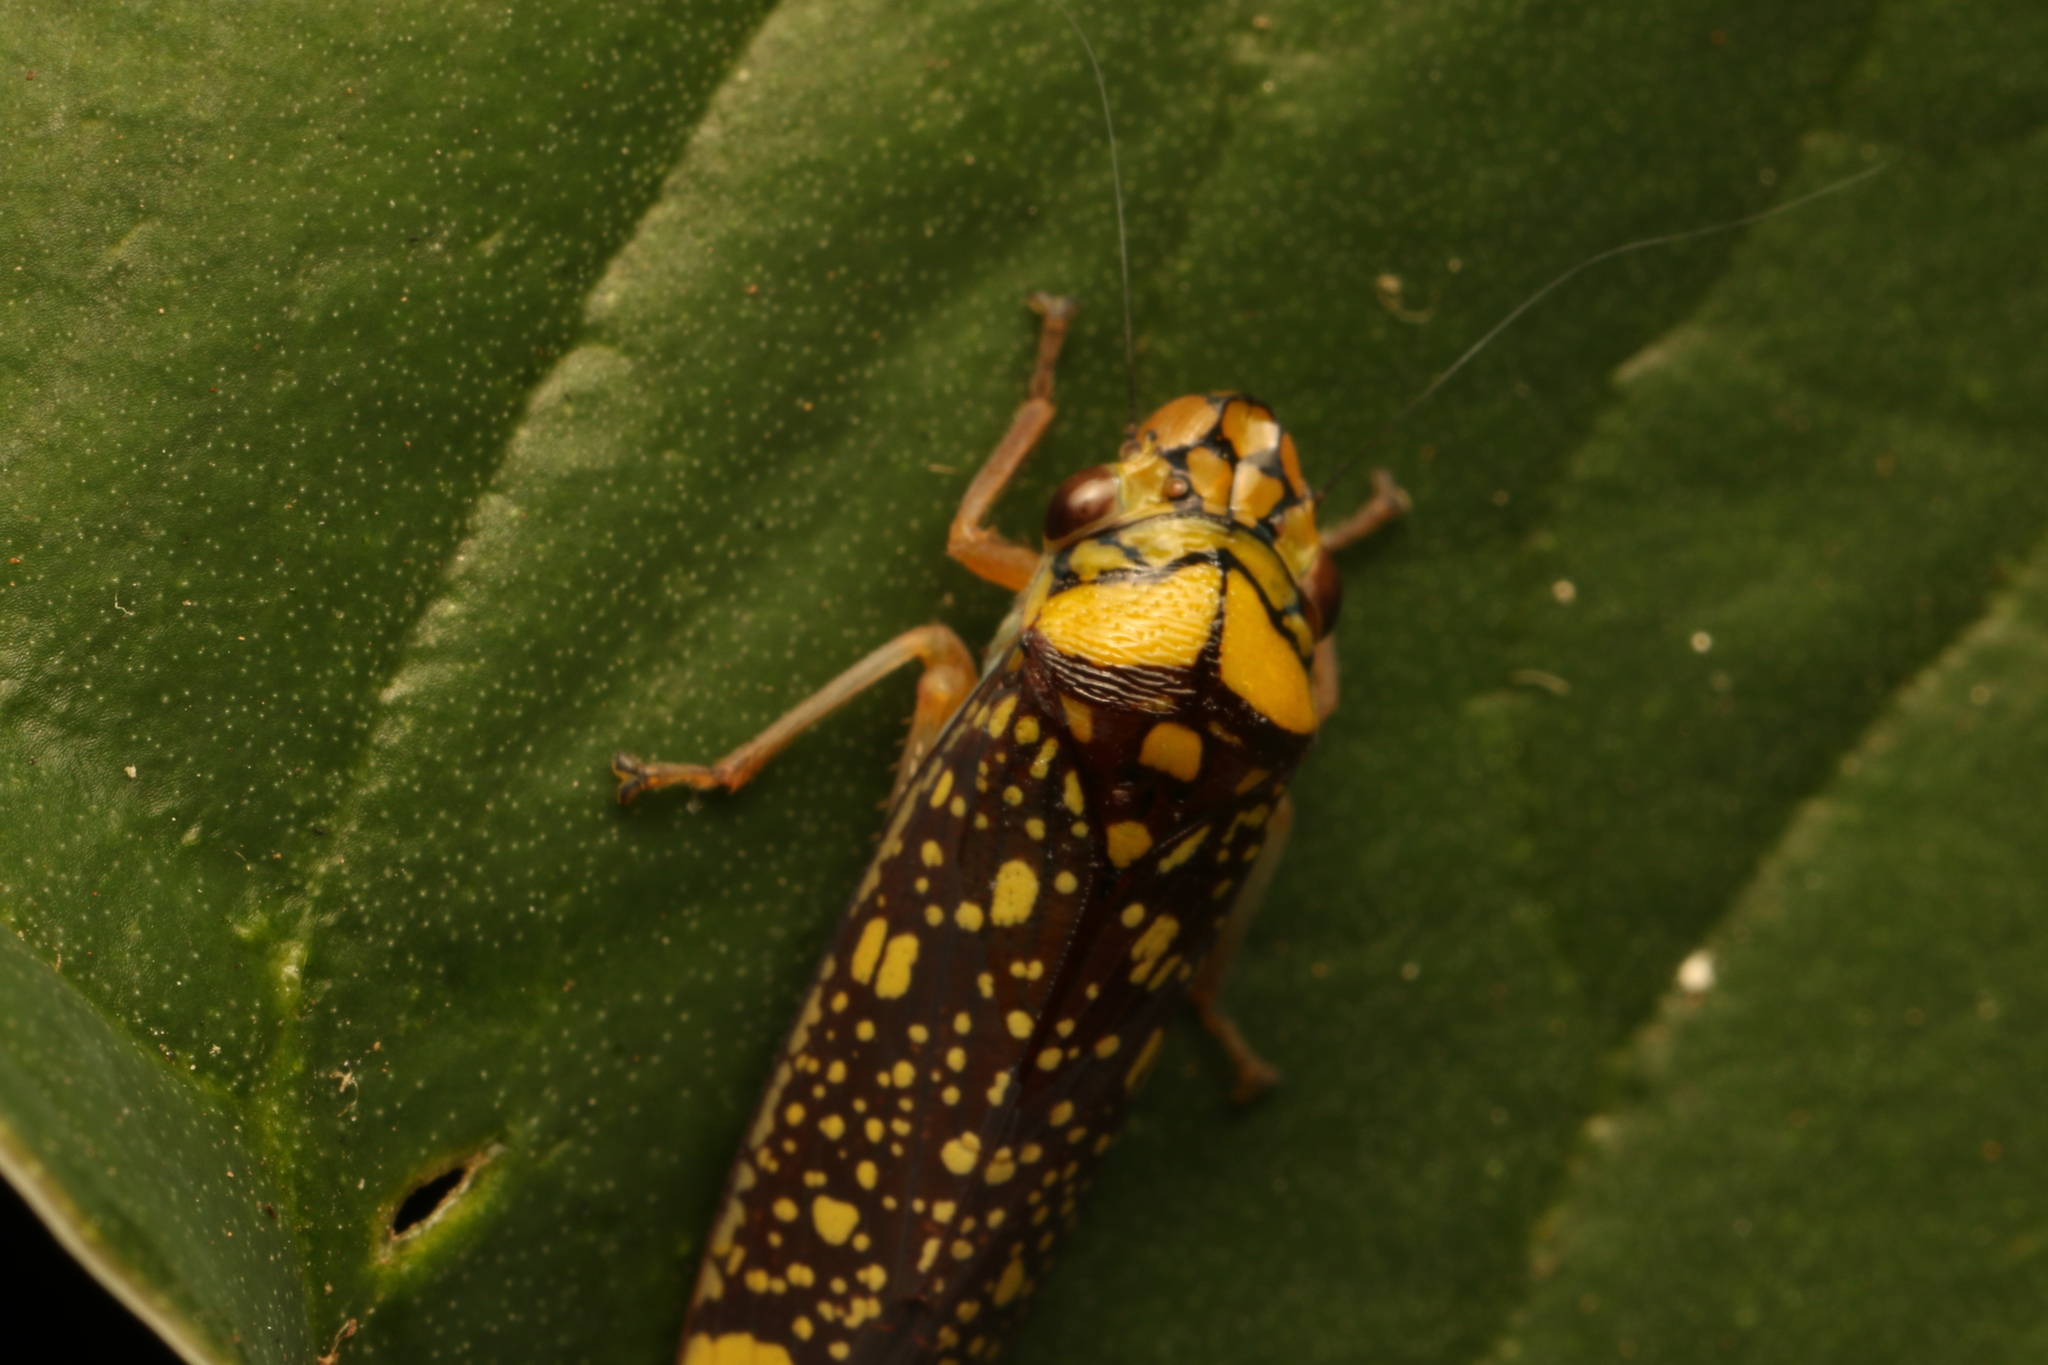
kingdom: Animalia
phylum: Arthropoda
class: Insecta
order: Hemiptera
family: Cicadellidae
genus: Aulacizes
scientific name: Aulacizes conspersa
